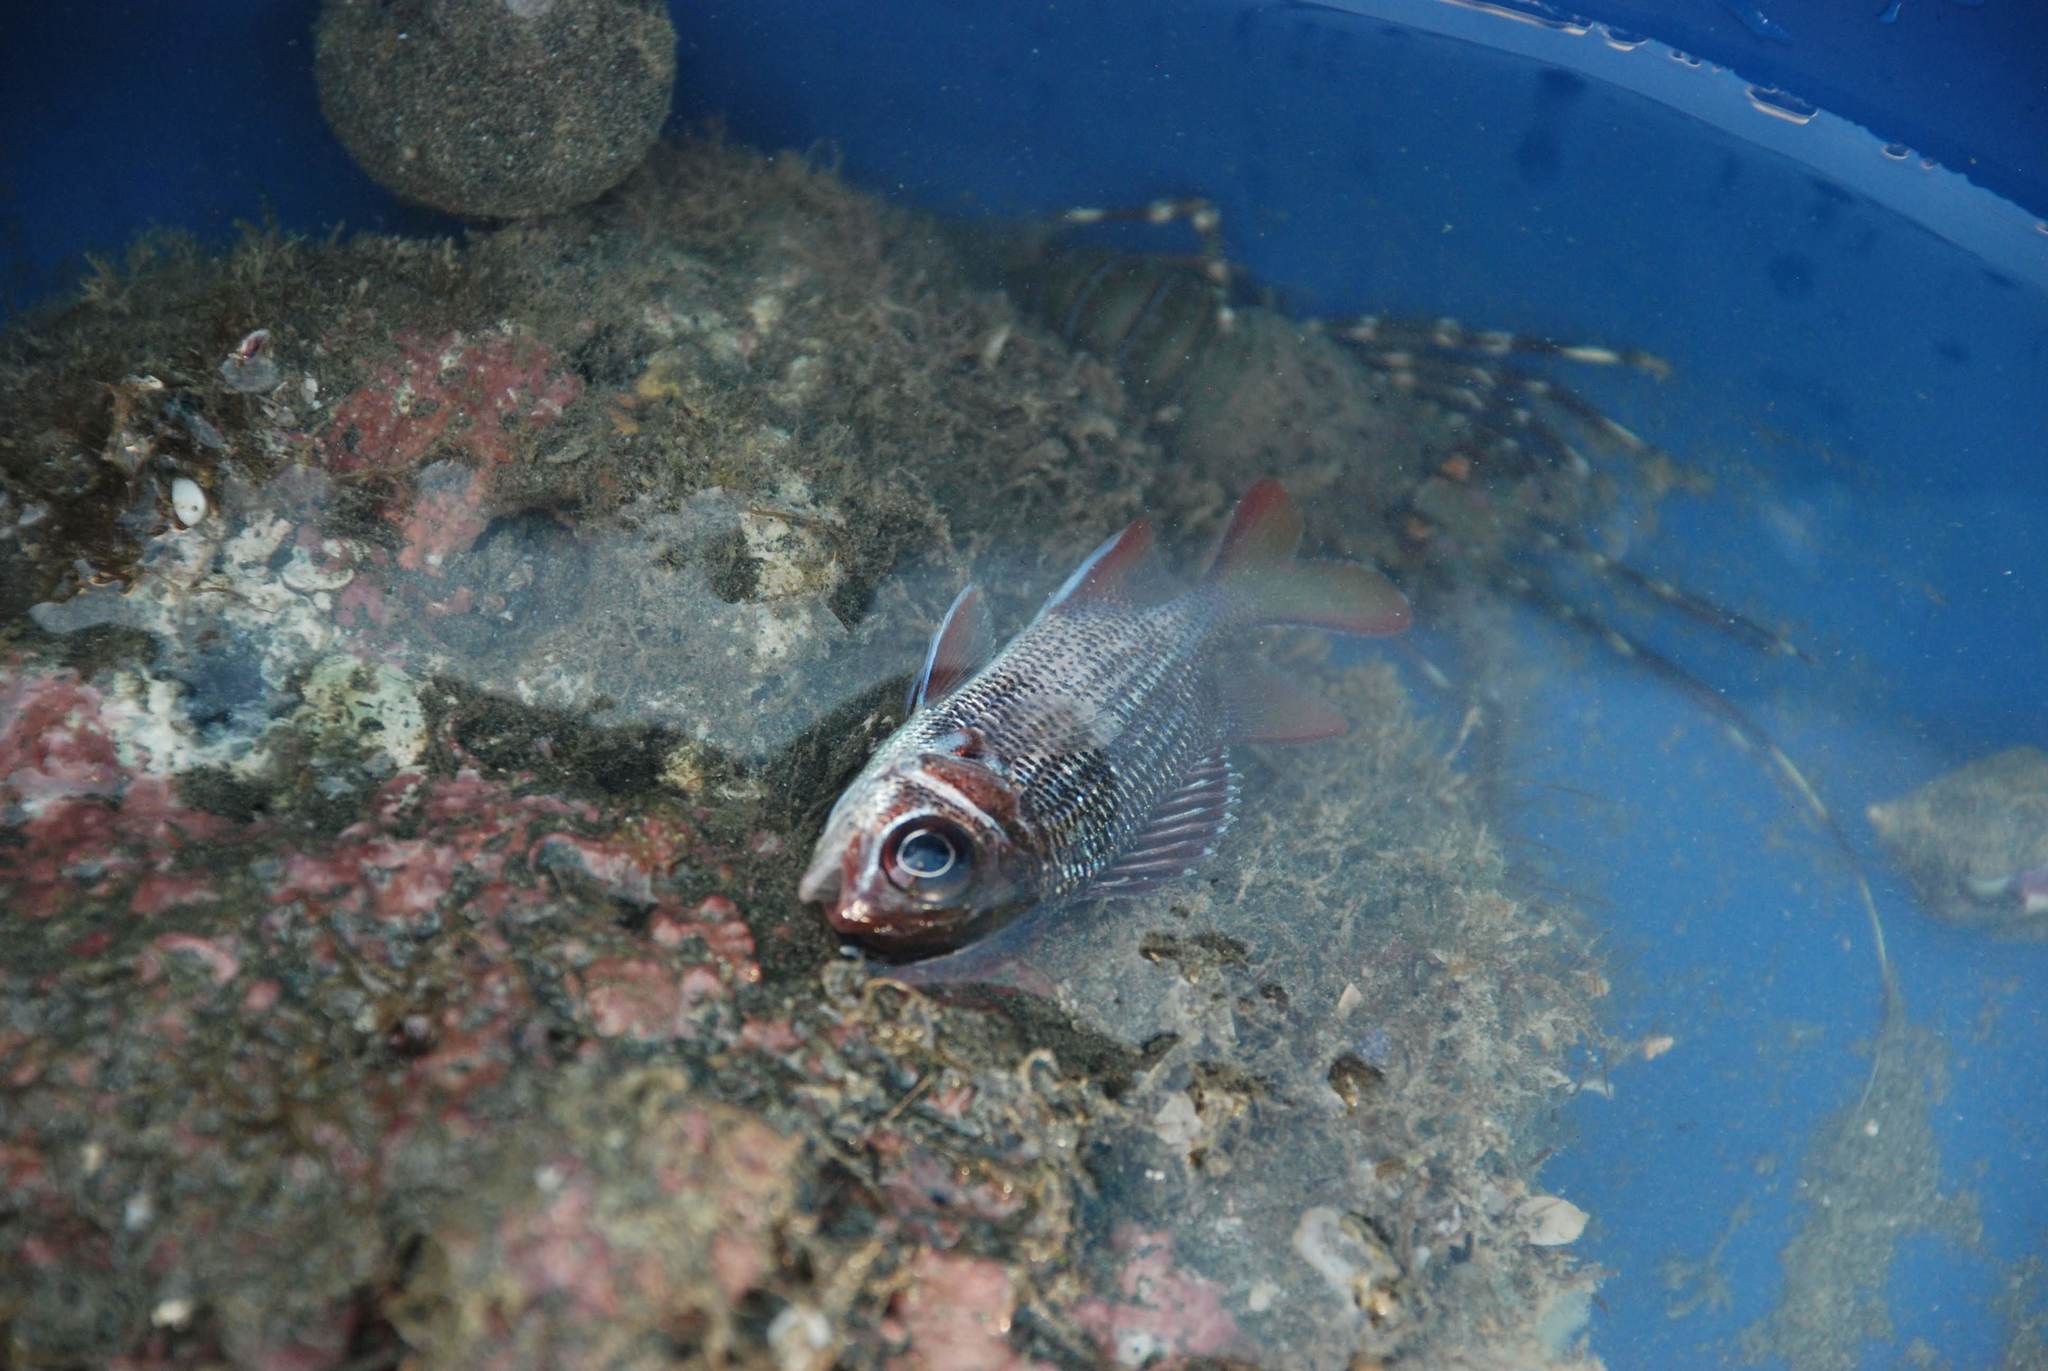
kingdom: Animalia
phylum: Chordata
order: Beryciformes
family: Holocentridae
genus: Sargocentron
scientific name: Sargocentron suborbitale
